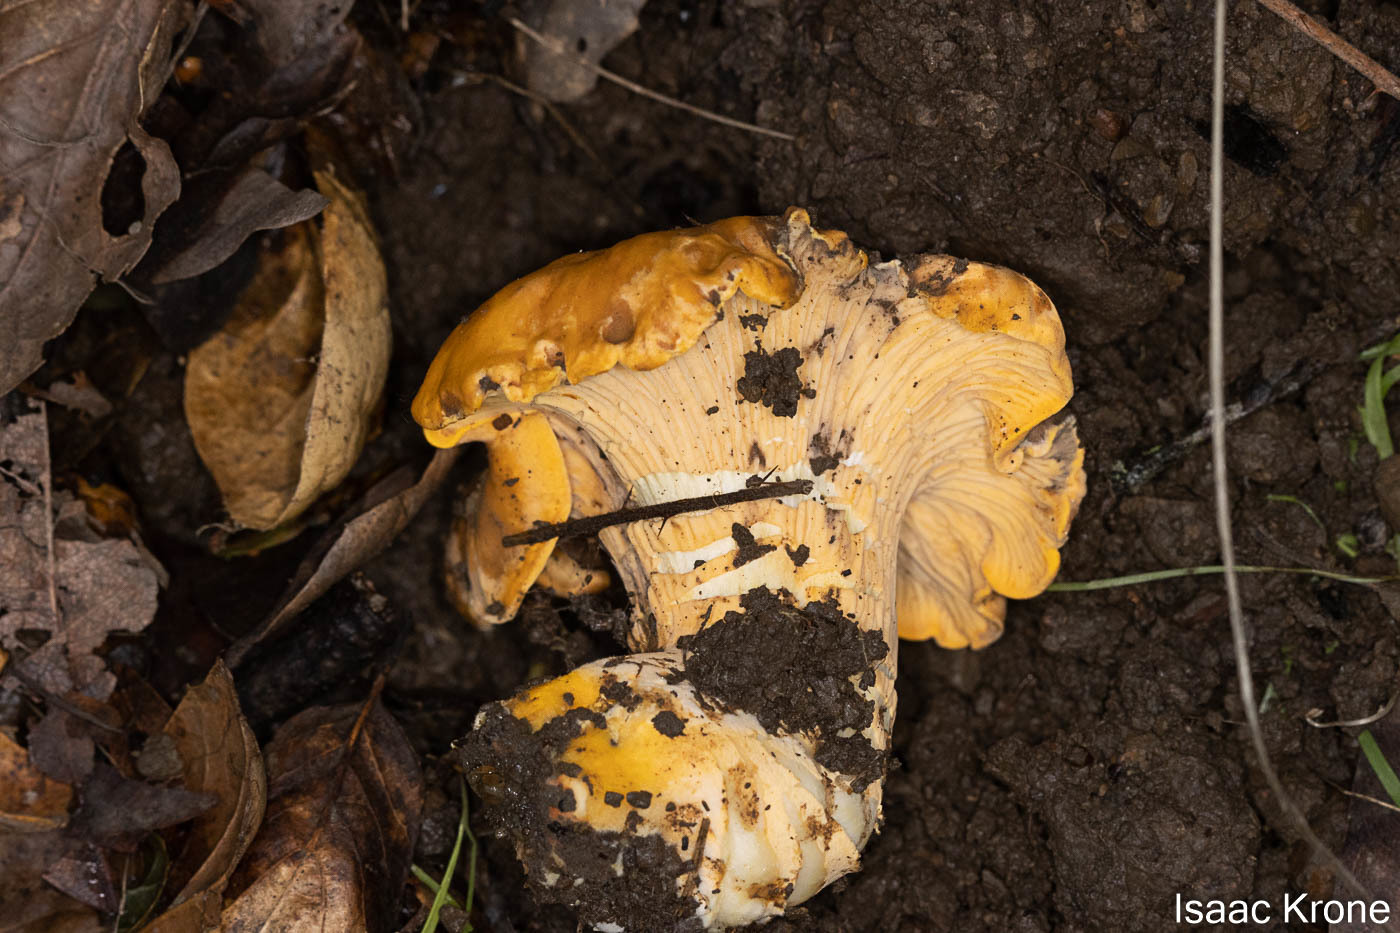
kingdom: Fungi
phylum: Basidiomycota
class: Agaricomycetes
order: Cantharellales
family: Hydnaceae
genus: Cantharellus
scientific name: Cantharellus californicus
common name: California golden chanterelle
